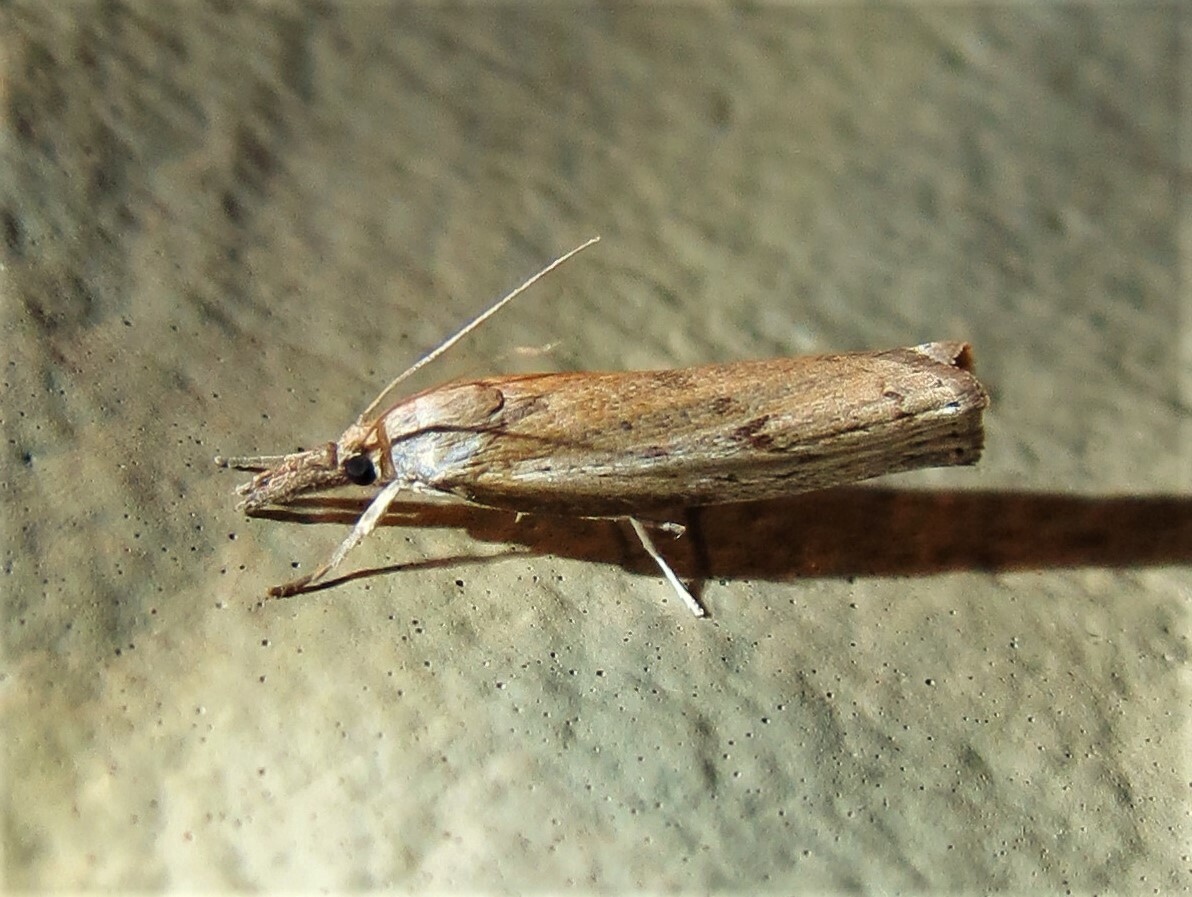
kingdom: Animalia
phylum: Arthropoda
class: Insecta
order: Lepidoptera
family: Crambidae
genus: Parapediasia
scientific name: Parapediasia teterellus
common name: Bluegrass webworm moth
